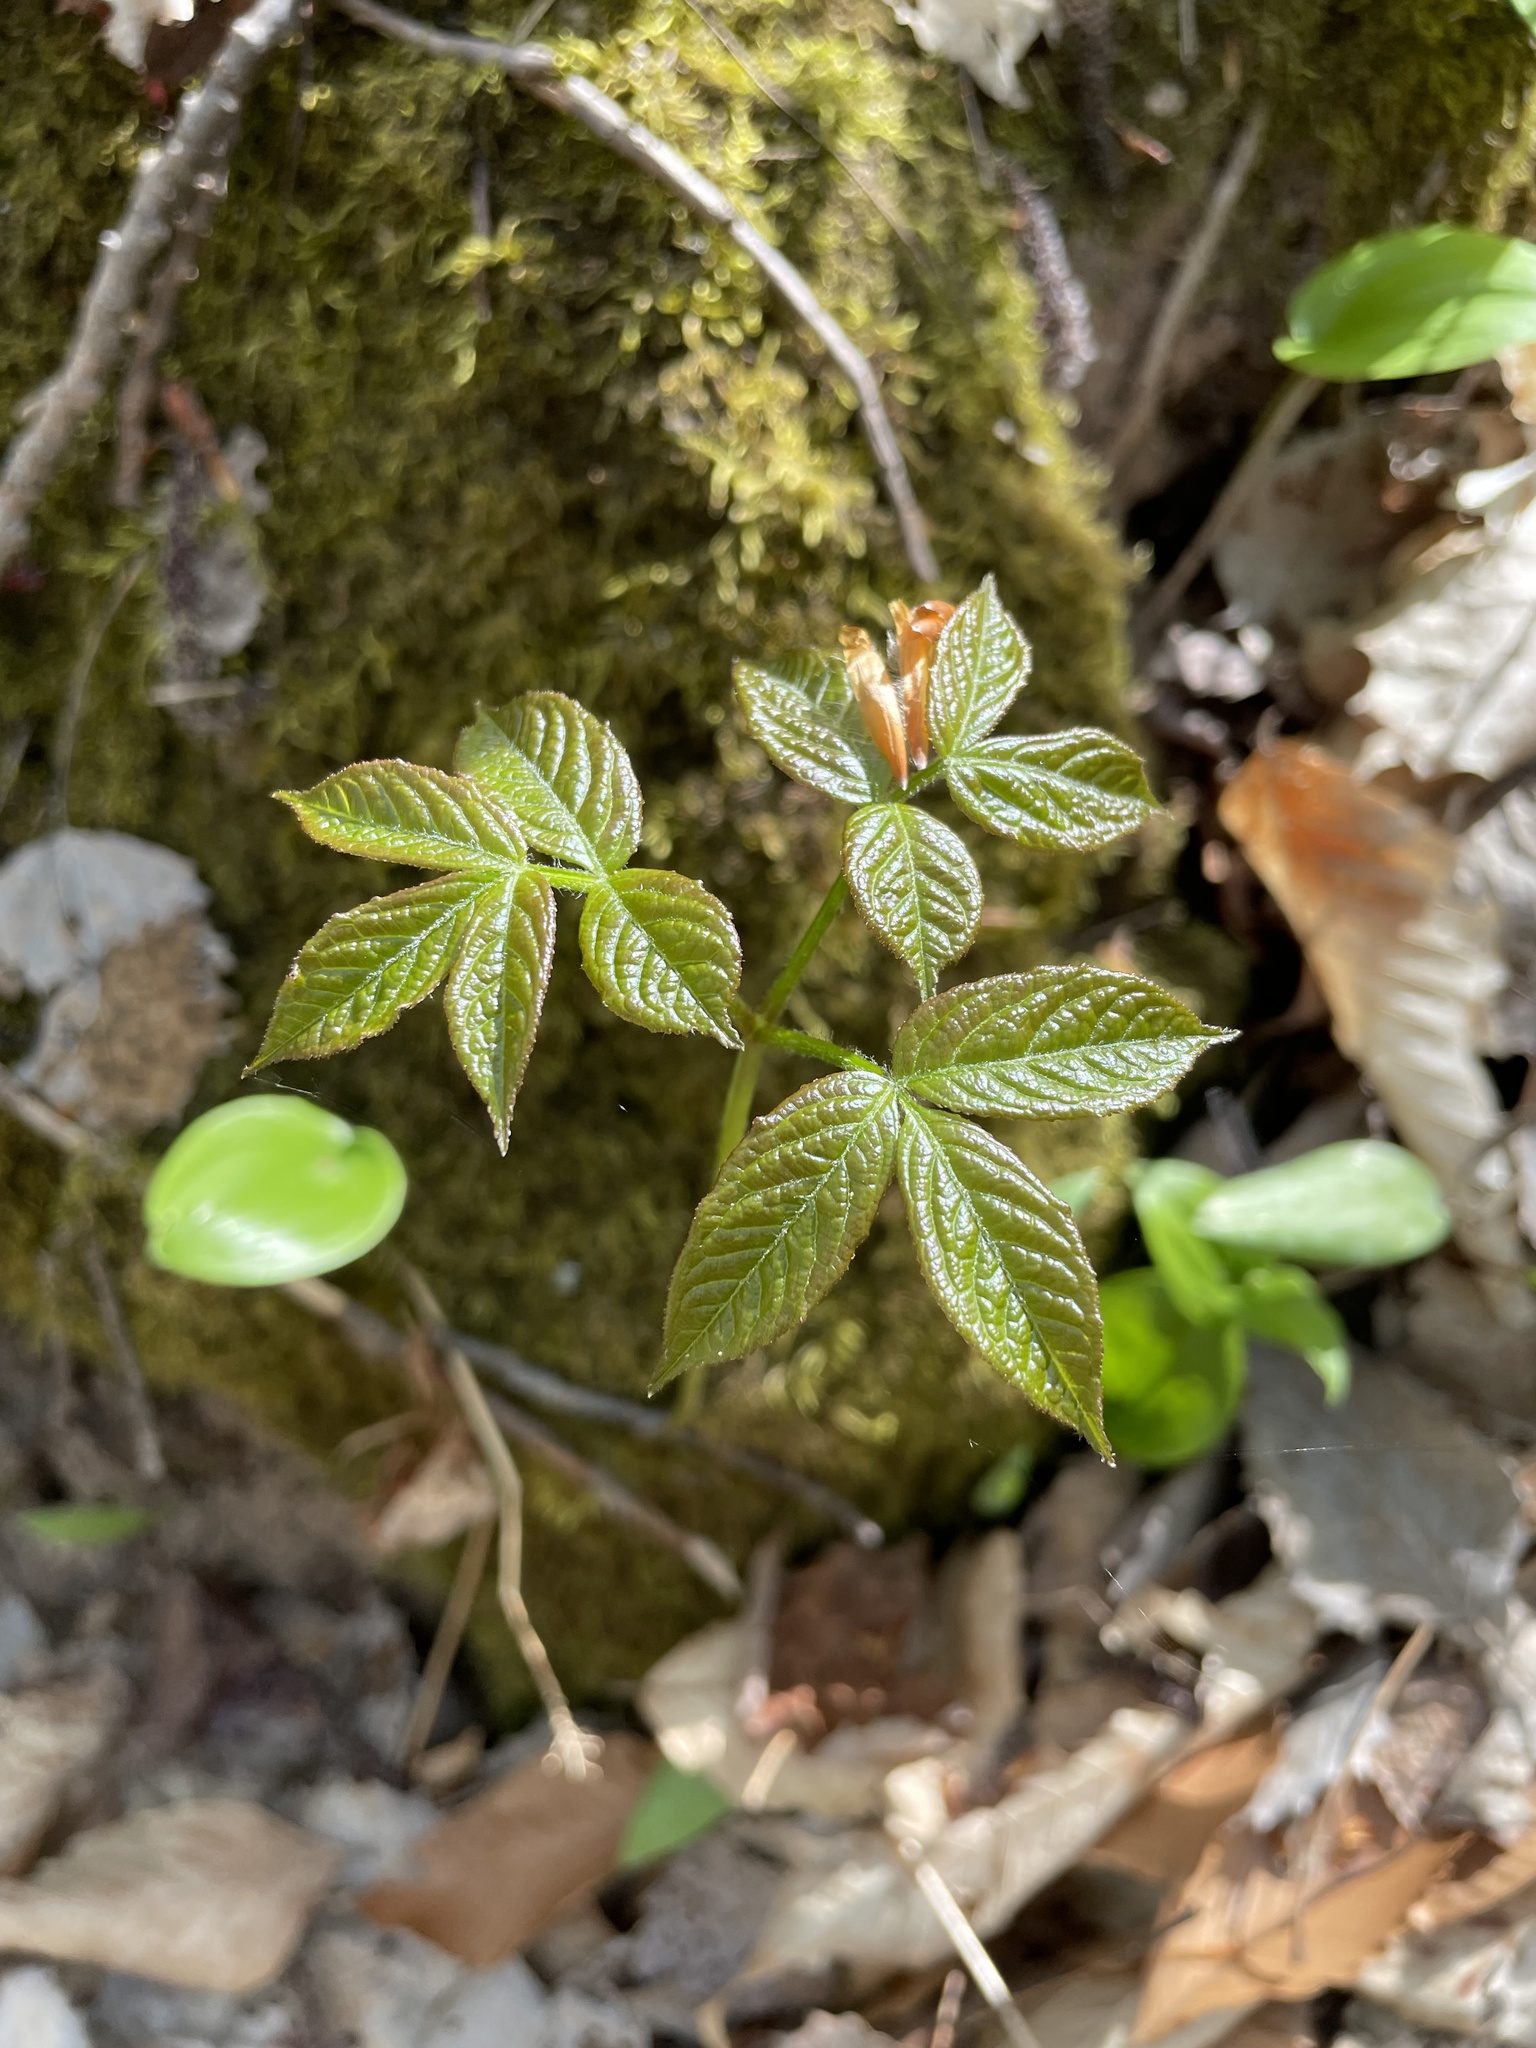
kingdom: Plantae
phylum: Tracheophyta
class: Magnoliopsida
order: Apiales
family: Araliaceae
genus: Aralia
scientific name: Aralia nudicaulis
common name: Wild sarsaparilla
